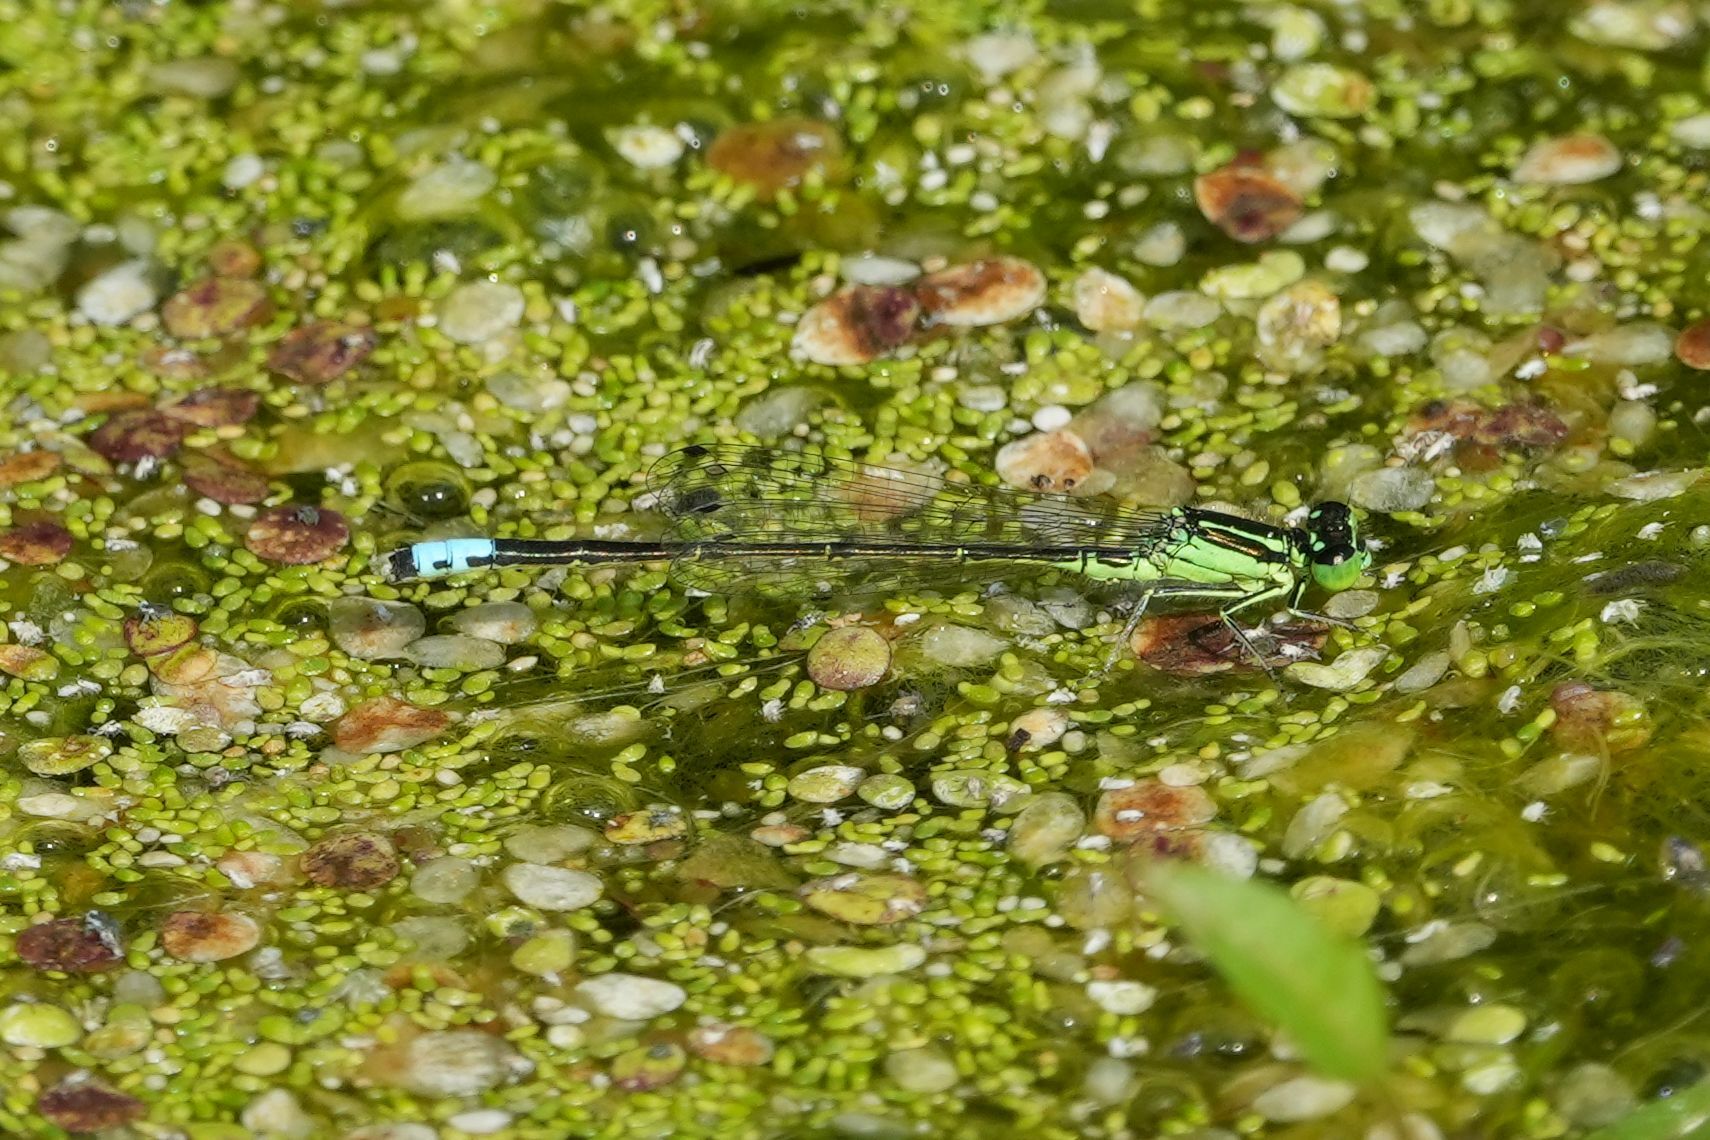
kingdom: Animalia
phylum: Arthropoda
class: Insecta
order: Odonata
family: Coenagrionidae
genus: Ischnura
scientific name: Ischnura verticalis
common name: Eastern forktail
